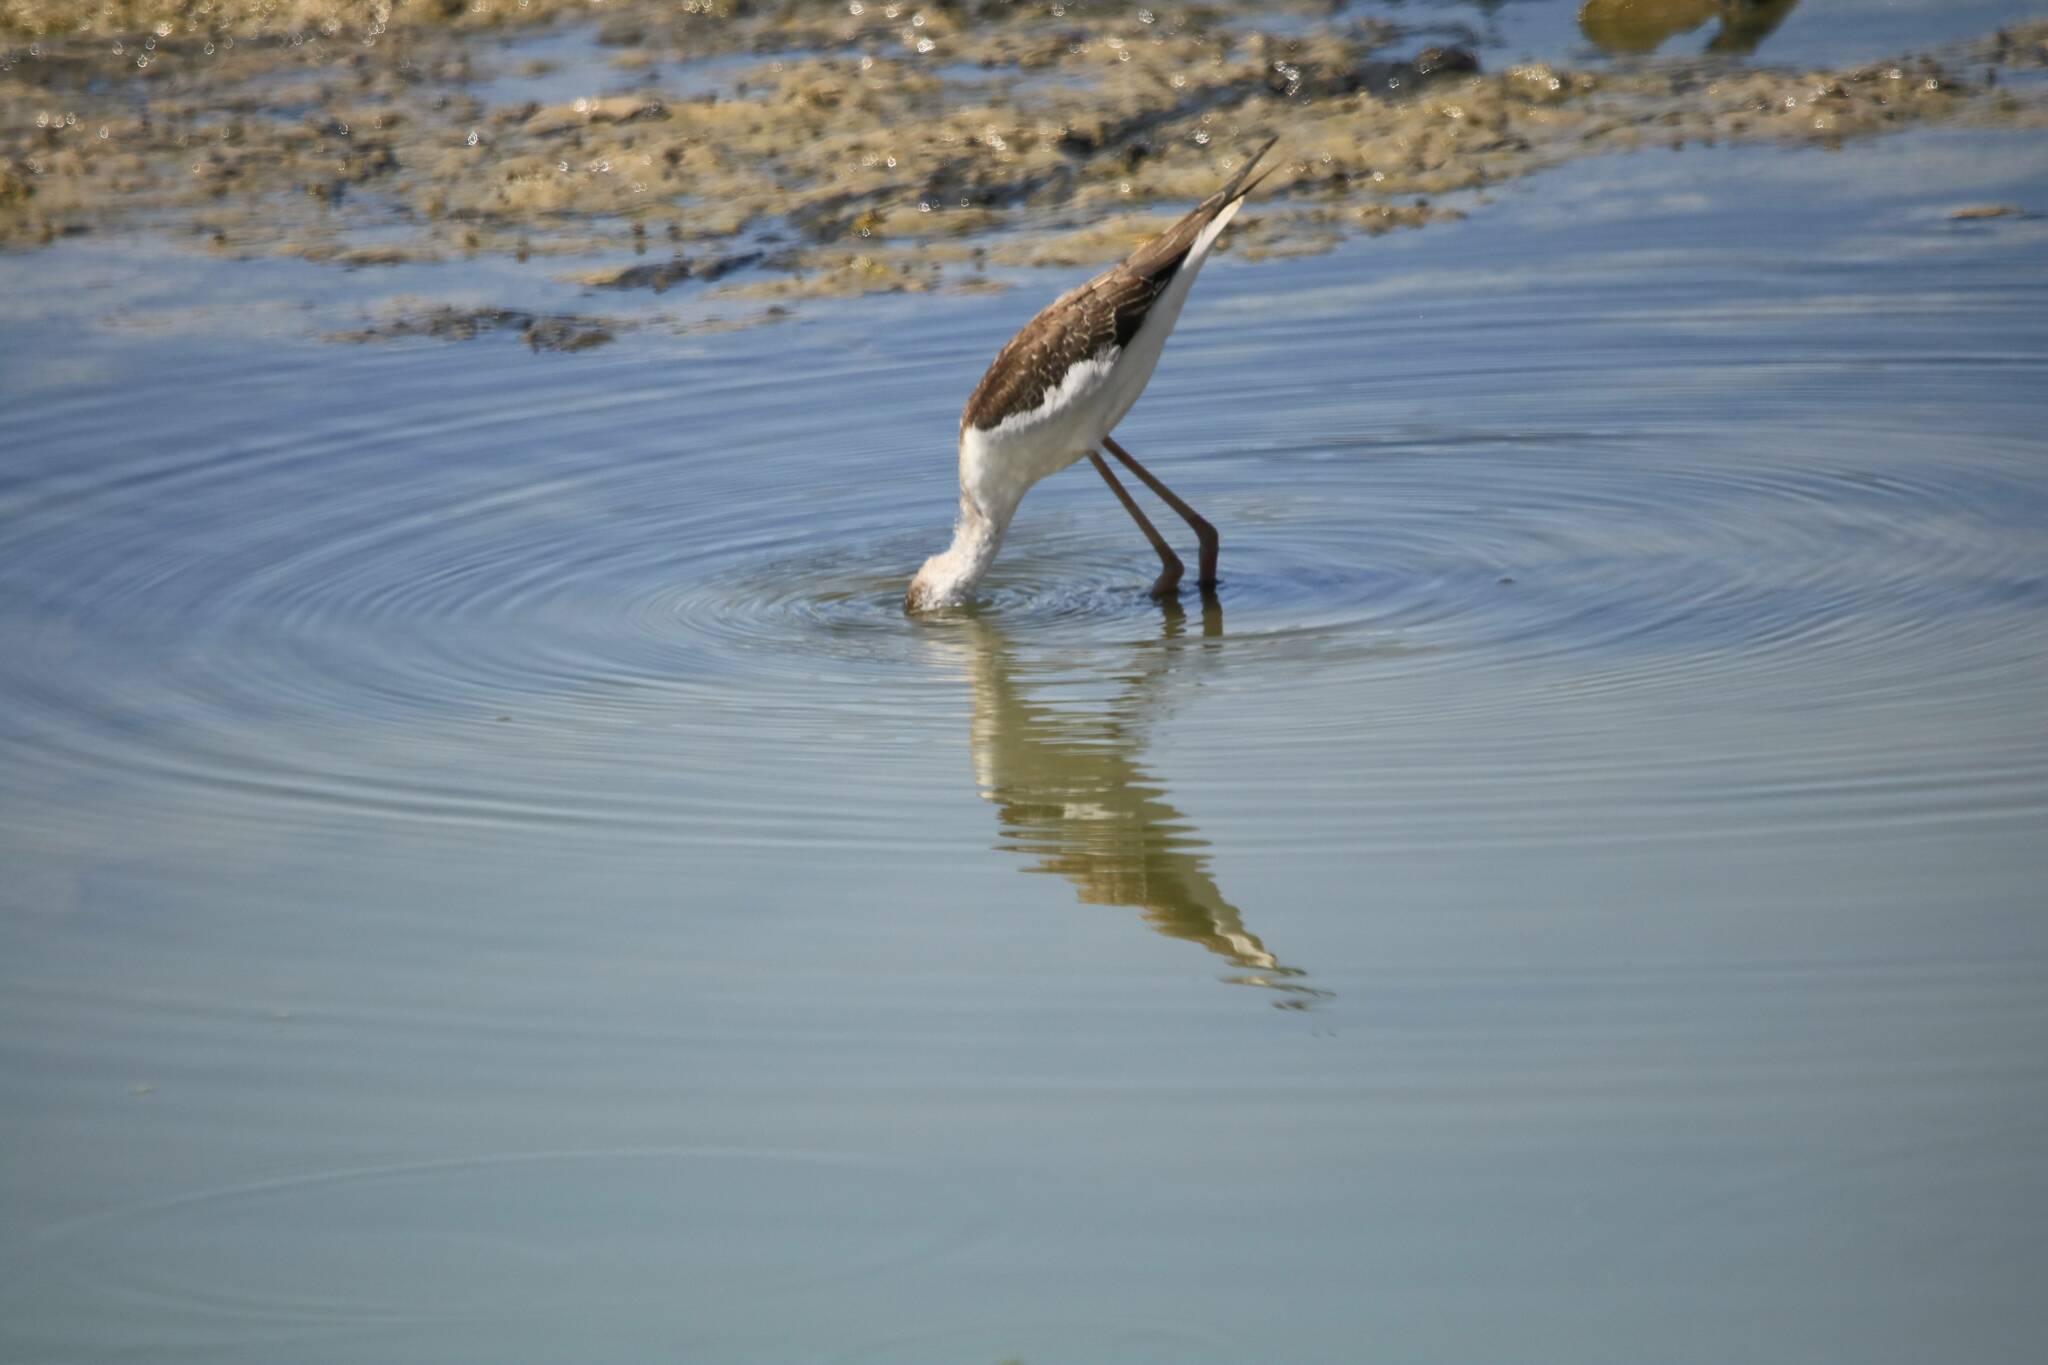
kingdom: Animalia
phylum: Chordata
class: Aves
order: Charadriiformes
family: Recurvirostridae
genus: Himantopus
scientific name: Himantopus himantopus
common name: Black-winged stilt
